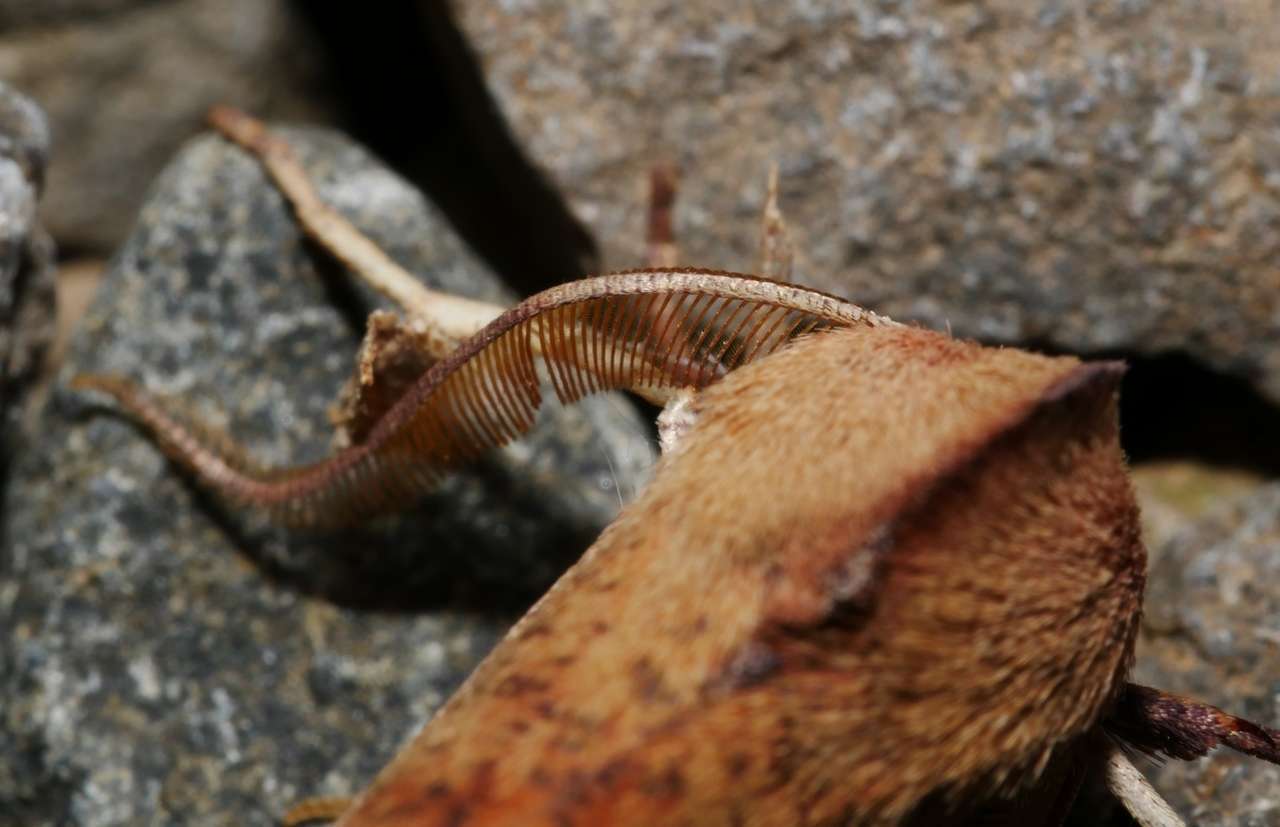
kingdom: Animalia
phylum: Arthropoda
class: Insecta
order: Lepidoptera
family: Geometridae
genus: Fisera
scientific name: Fisera hypoleuca
